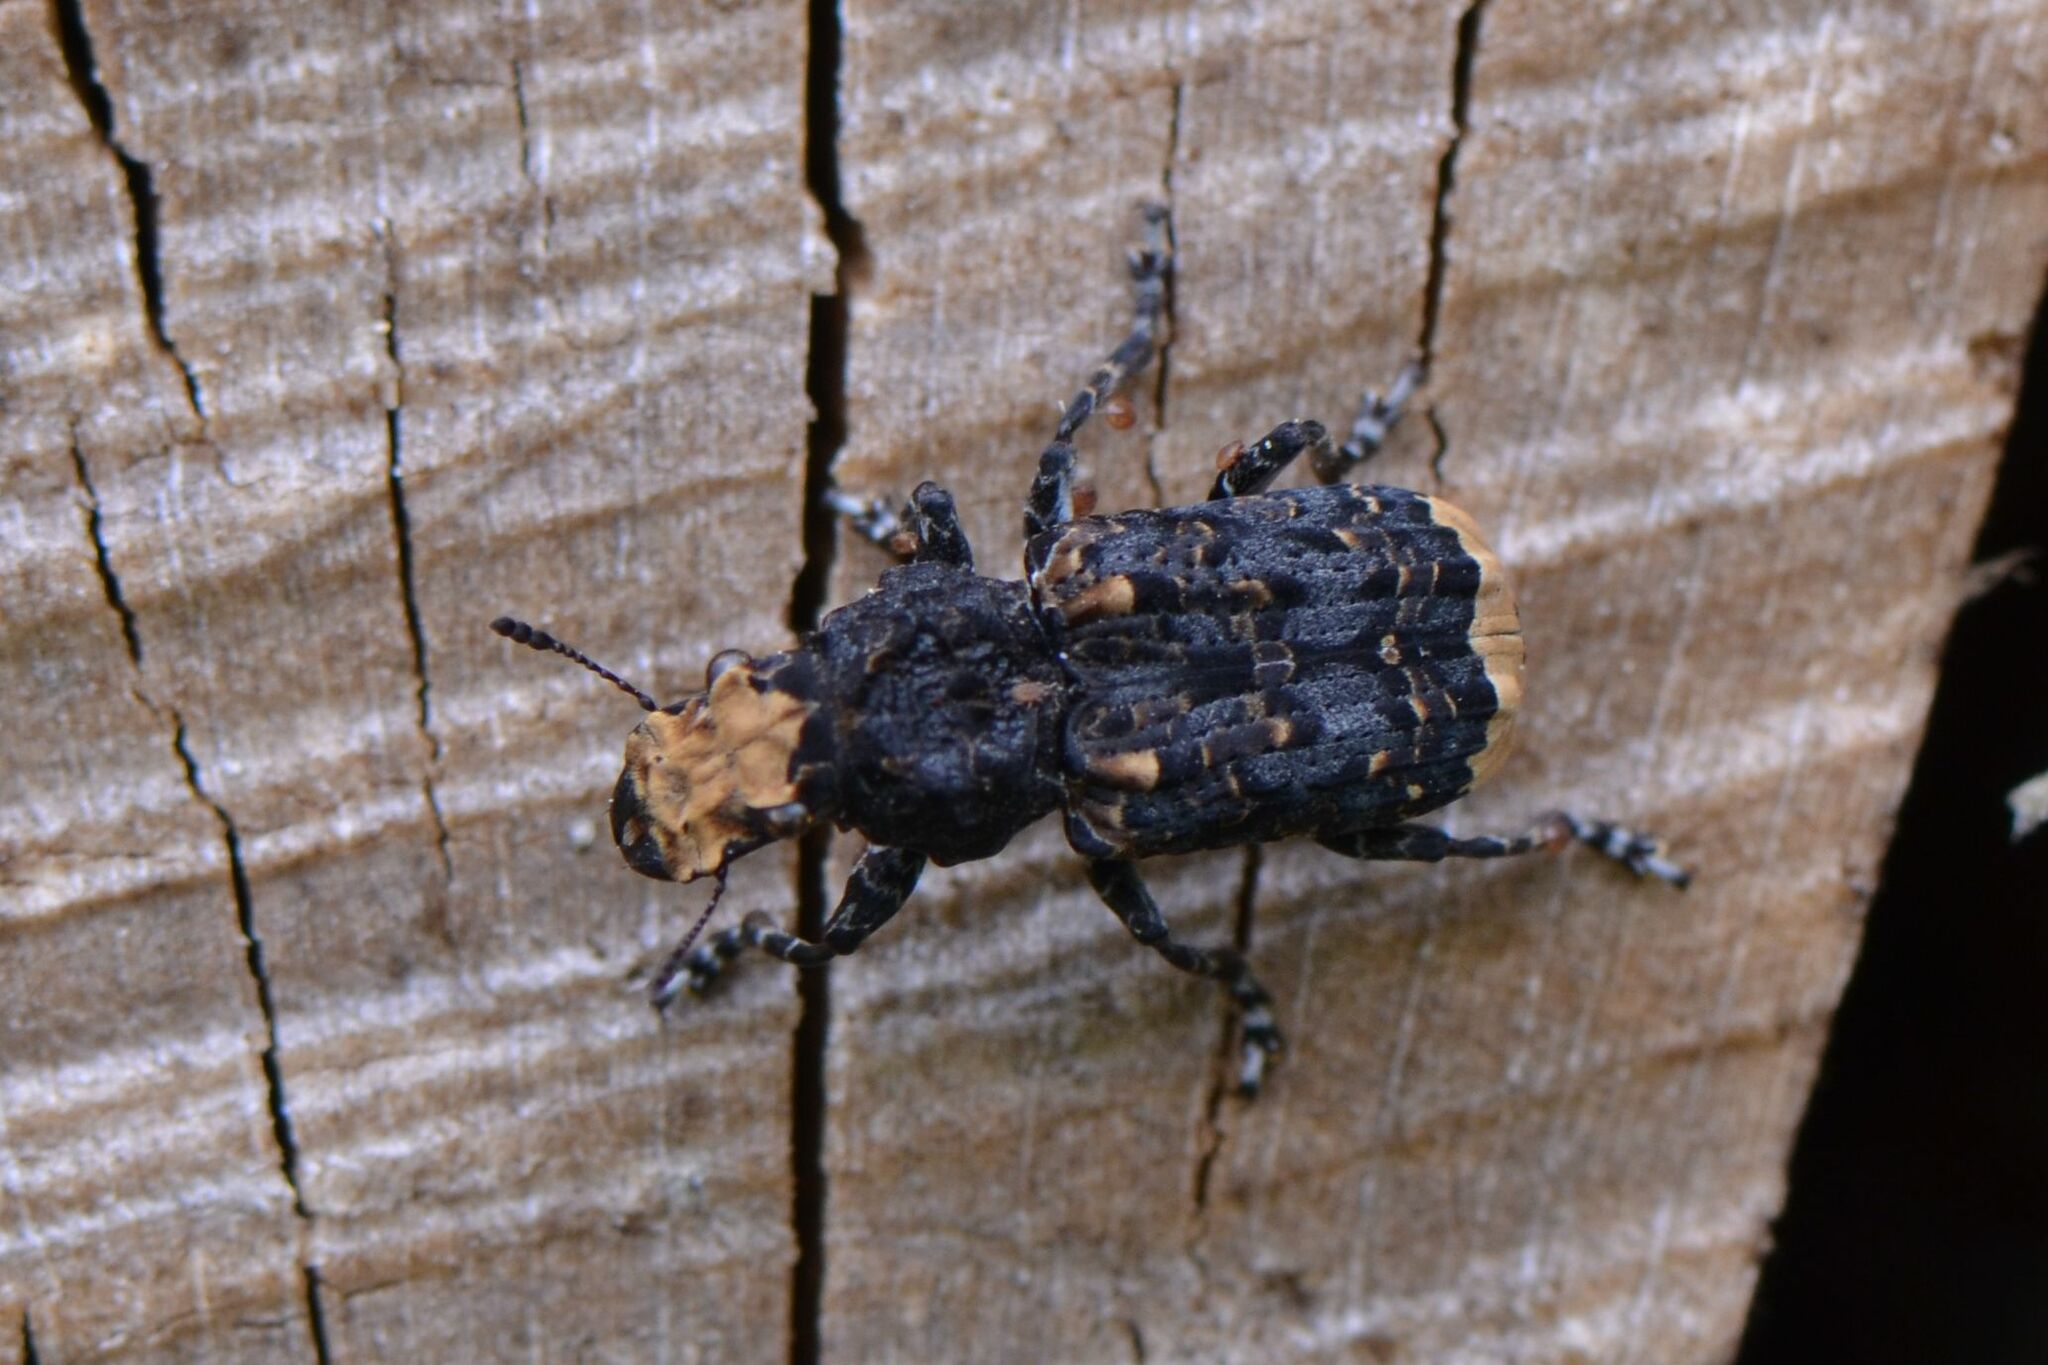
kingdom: Animalia
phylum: Arthropoda
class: Insecta
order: Coleoptera
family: Anthribidae
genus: Platyrhinus
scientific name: Platyrhinus resinosus
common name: Cramp-ball fungus weevil
